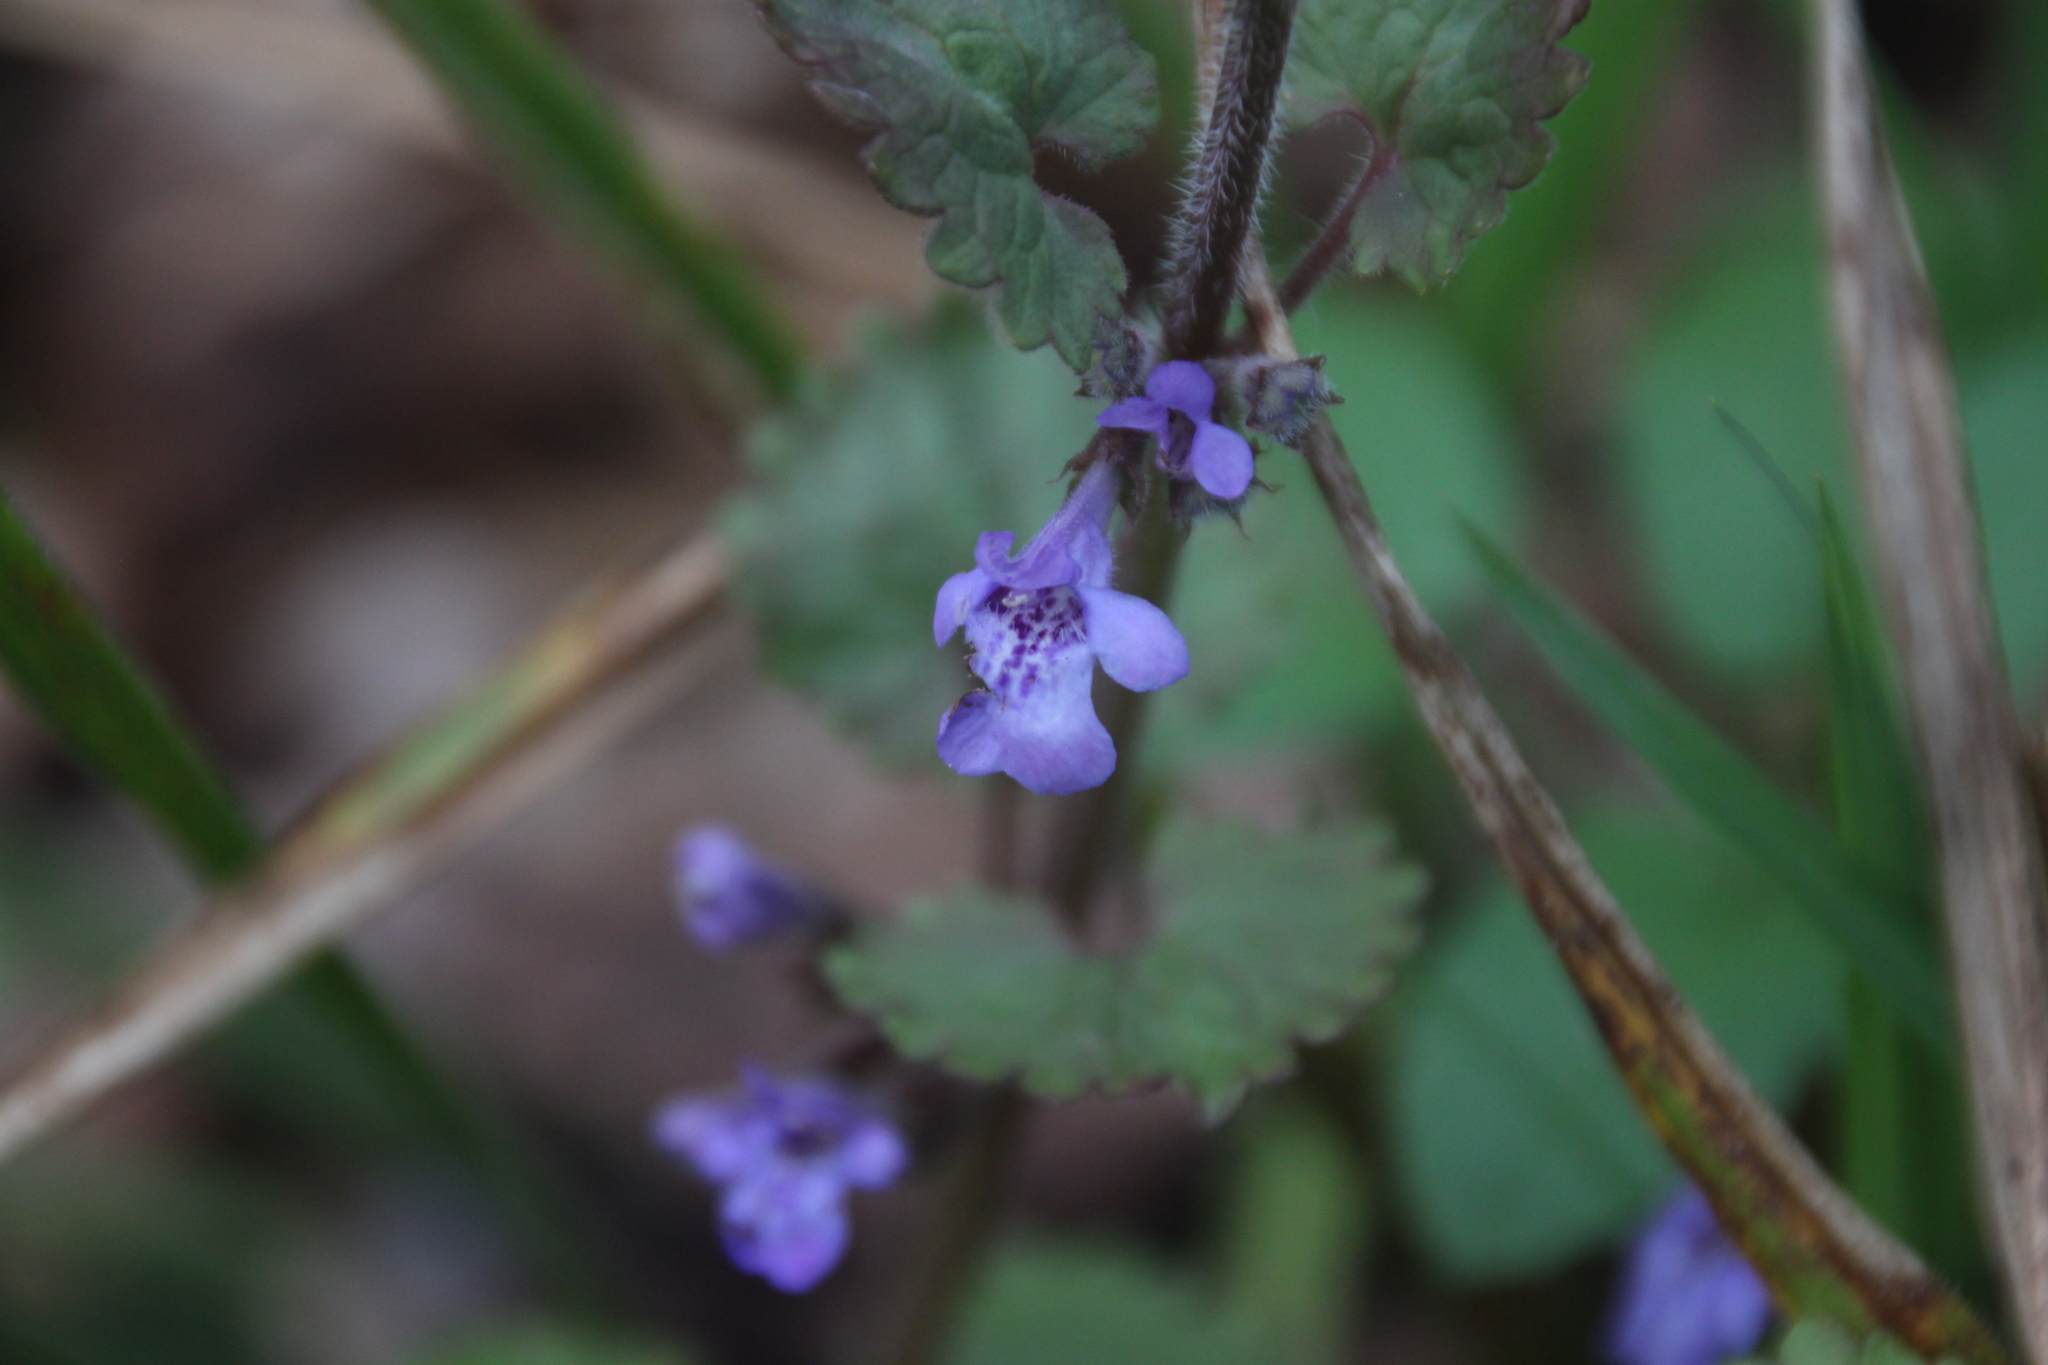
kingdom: Plantae
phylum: Tracheophyta
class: Magnoliopsida
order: Lamiales
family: Lamiaceae
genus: Glechoma
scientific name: Glechoma hederacea
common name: Ground ivy
